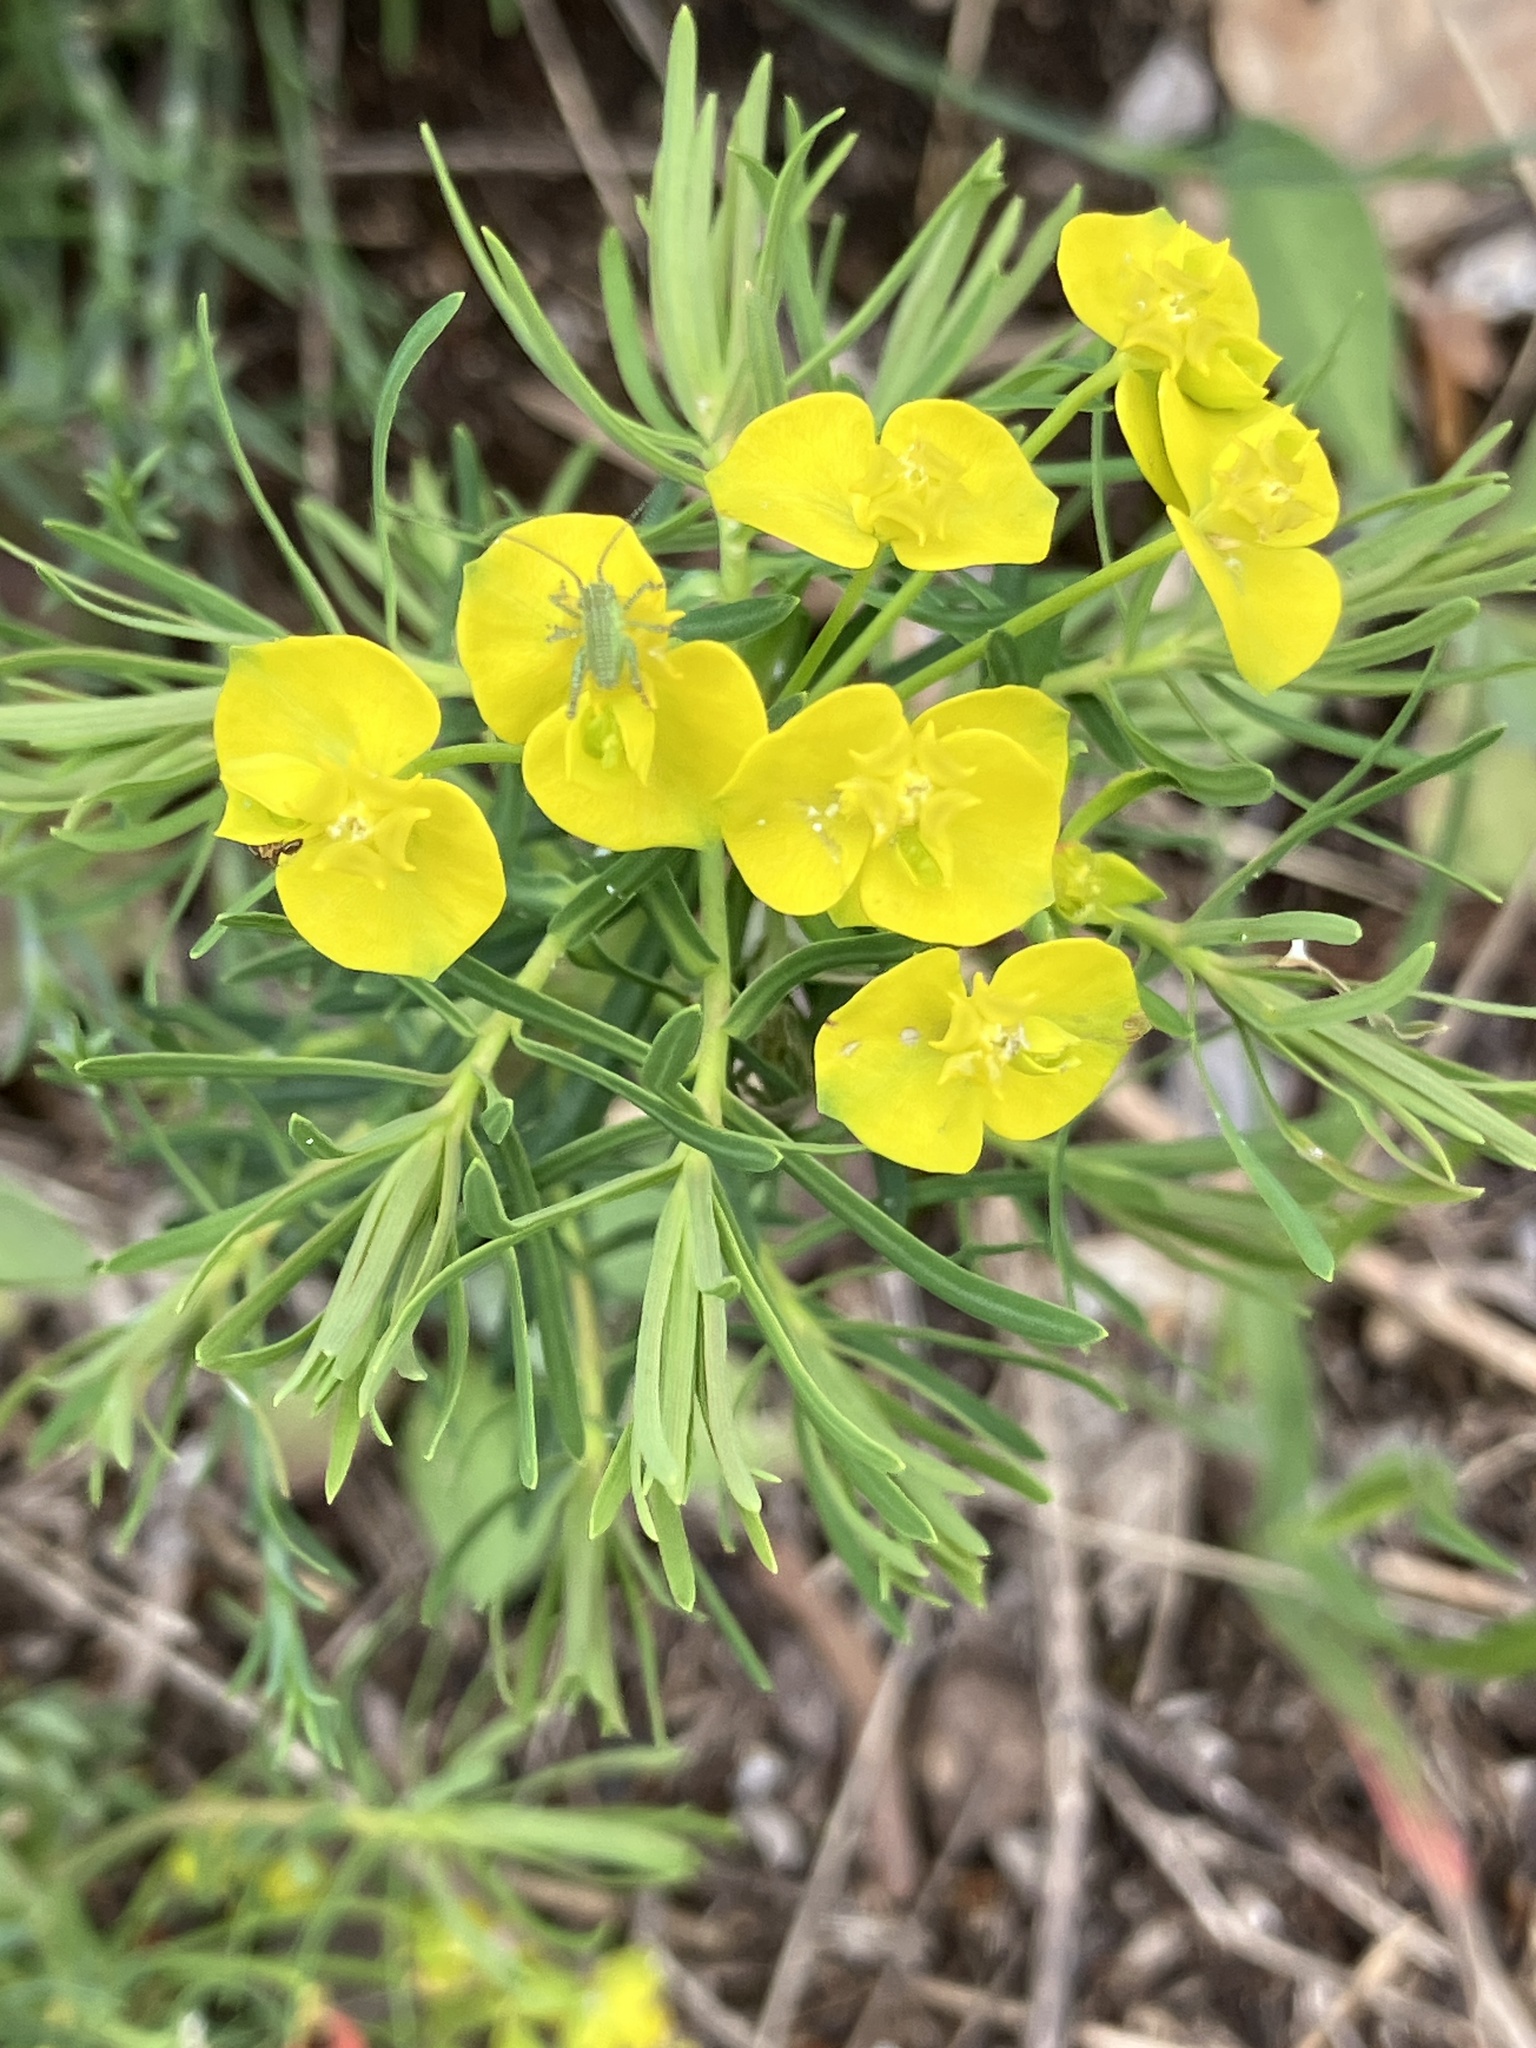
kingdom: Plantae
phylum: Tracheophyta
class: Magnoliopsida
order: Malpighiales
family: Euphorbiaceae
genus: Euphorbia
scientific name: Euphorbia cyparissias
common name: Cypress spurge
